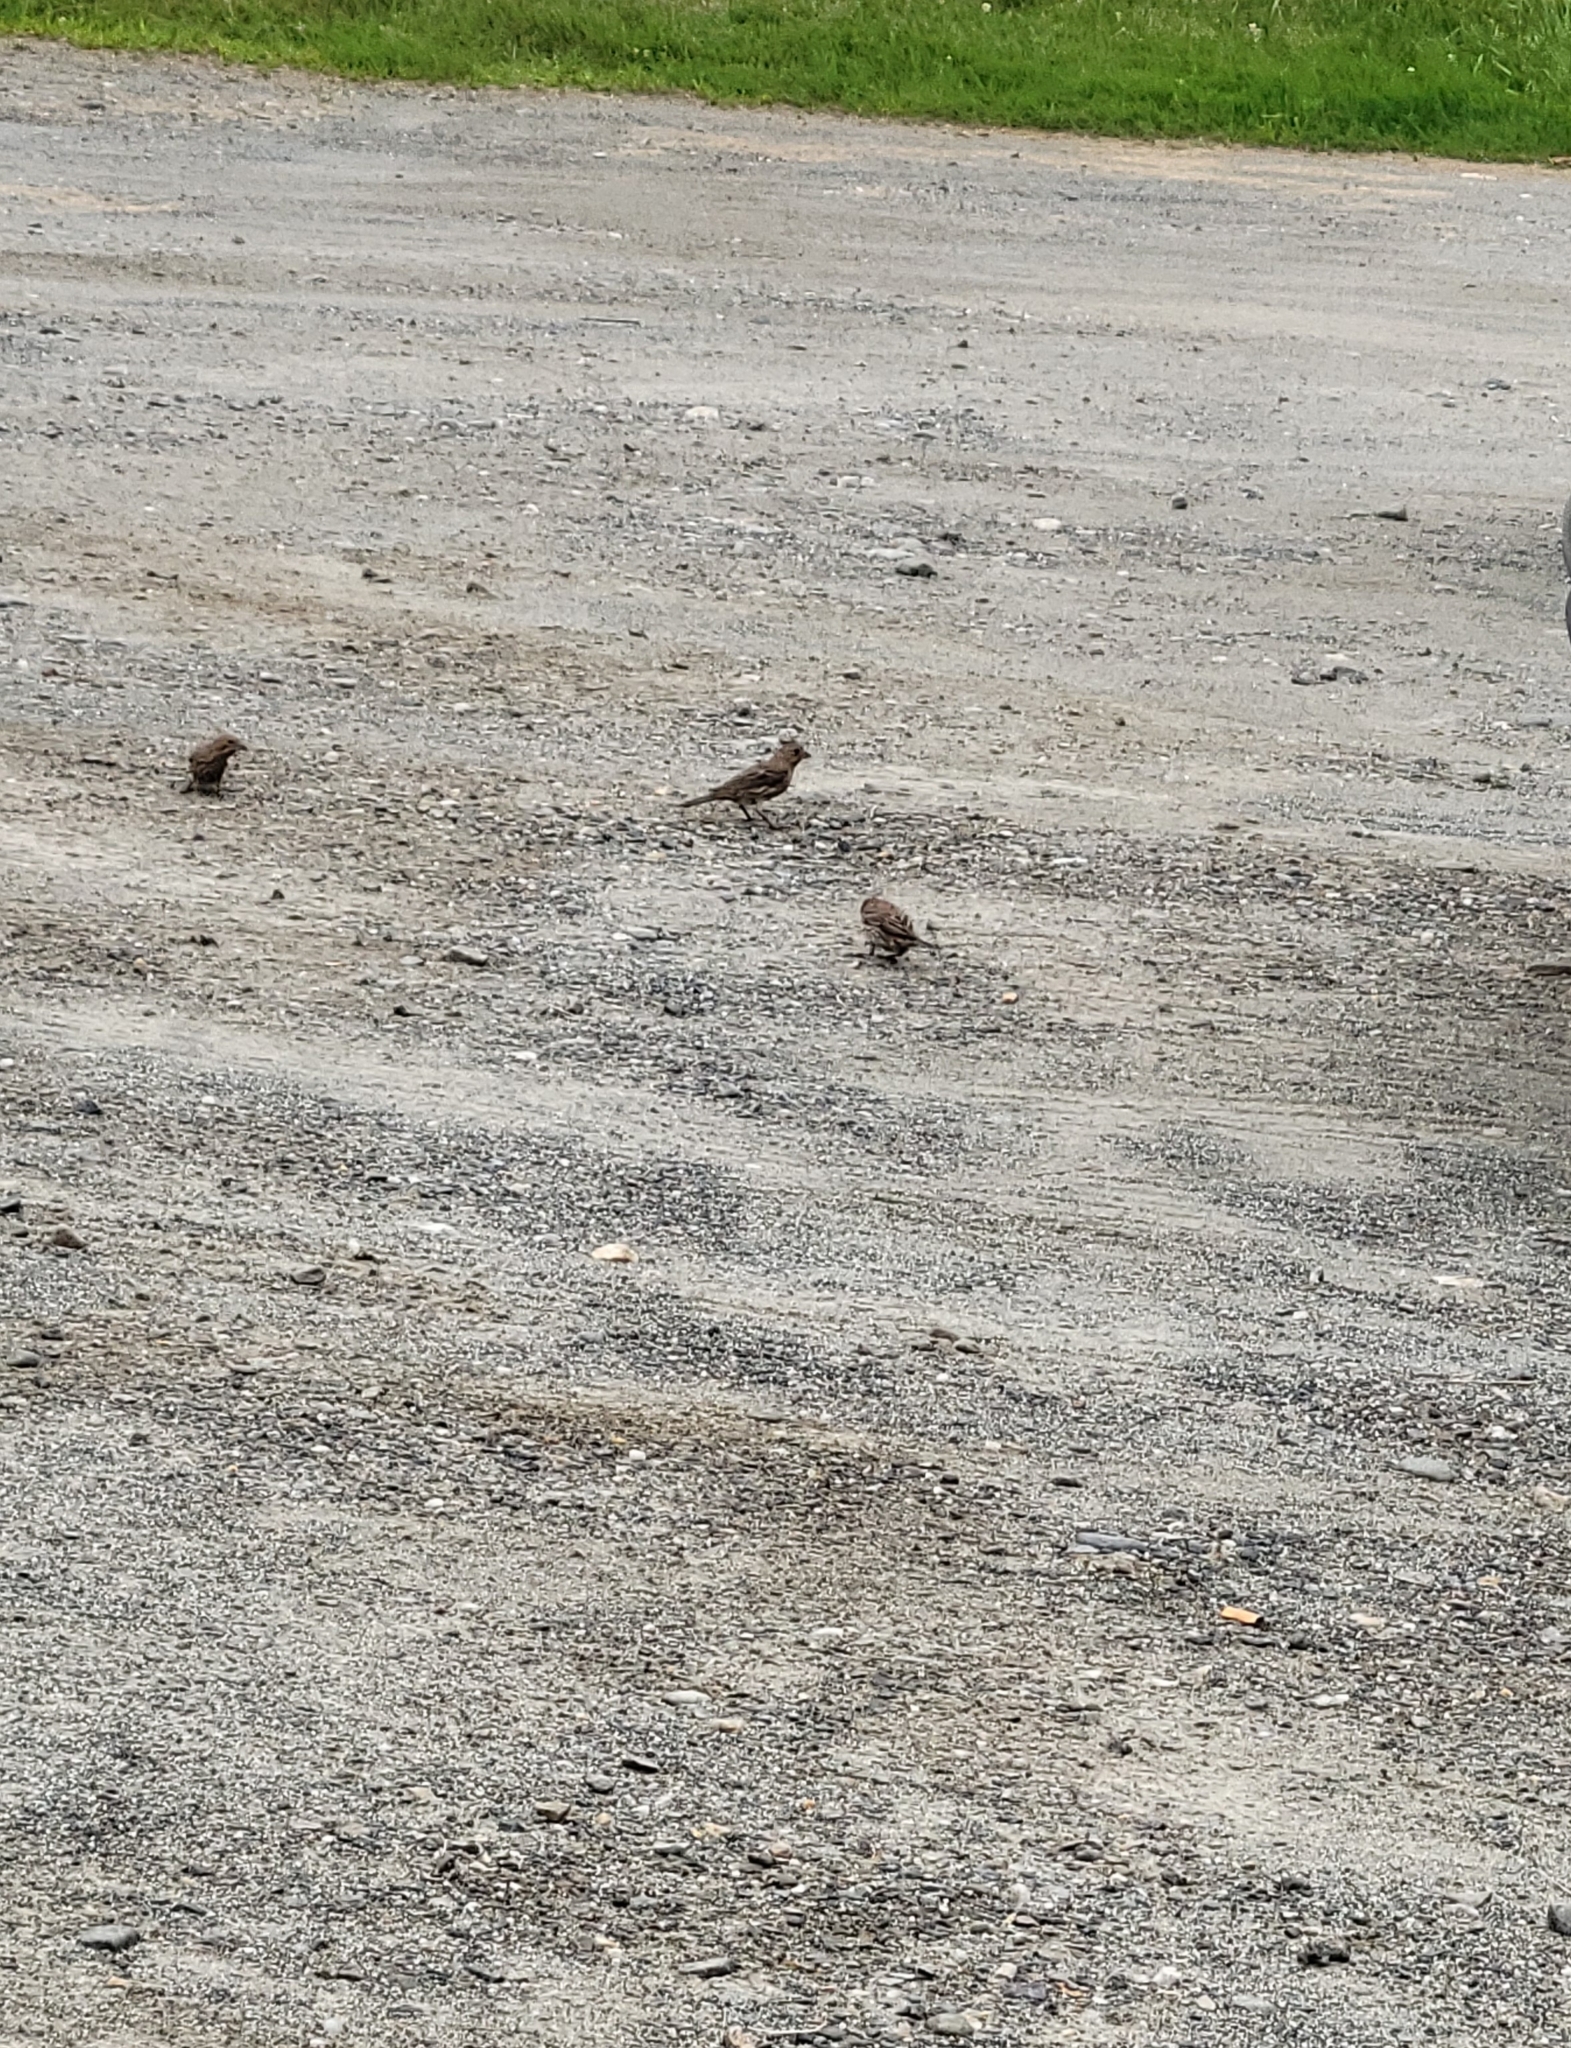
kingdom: Animalia
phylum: Chordata
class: Aves
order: Passeriformes
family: Fringillidae
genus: Haemorhous
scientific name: Haemorhous mexicanus
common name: House finch
